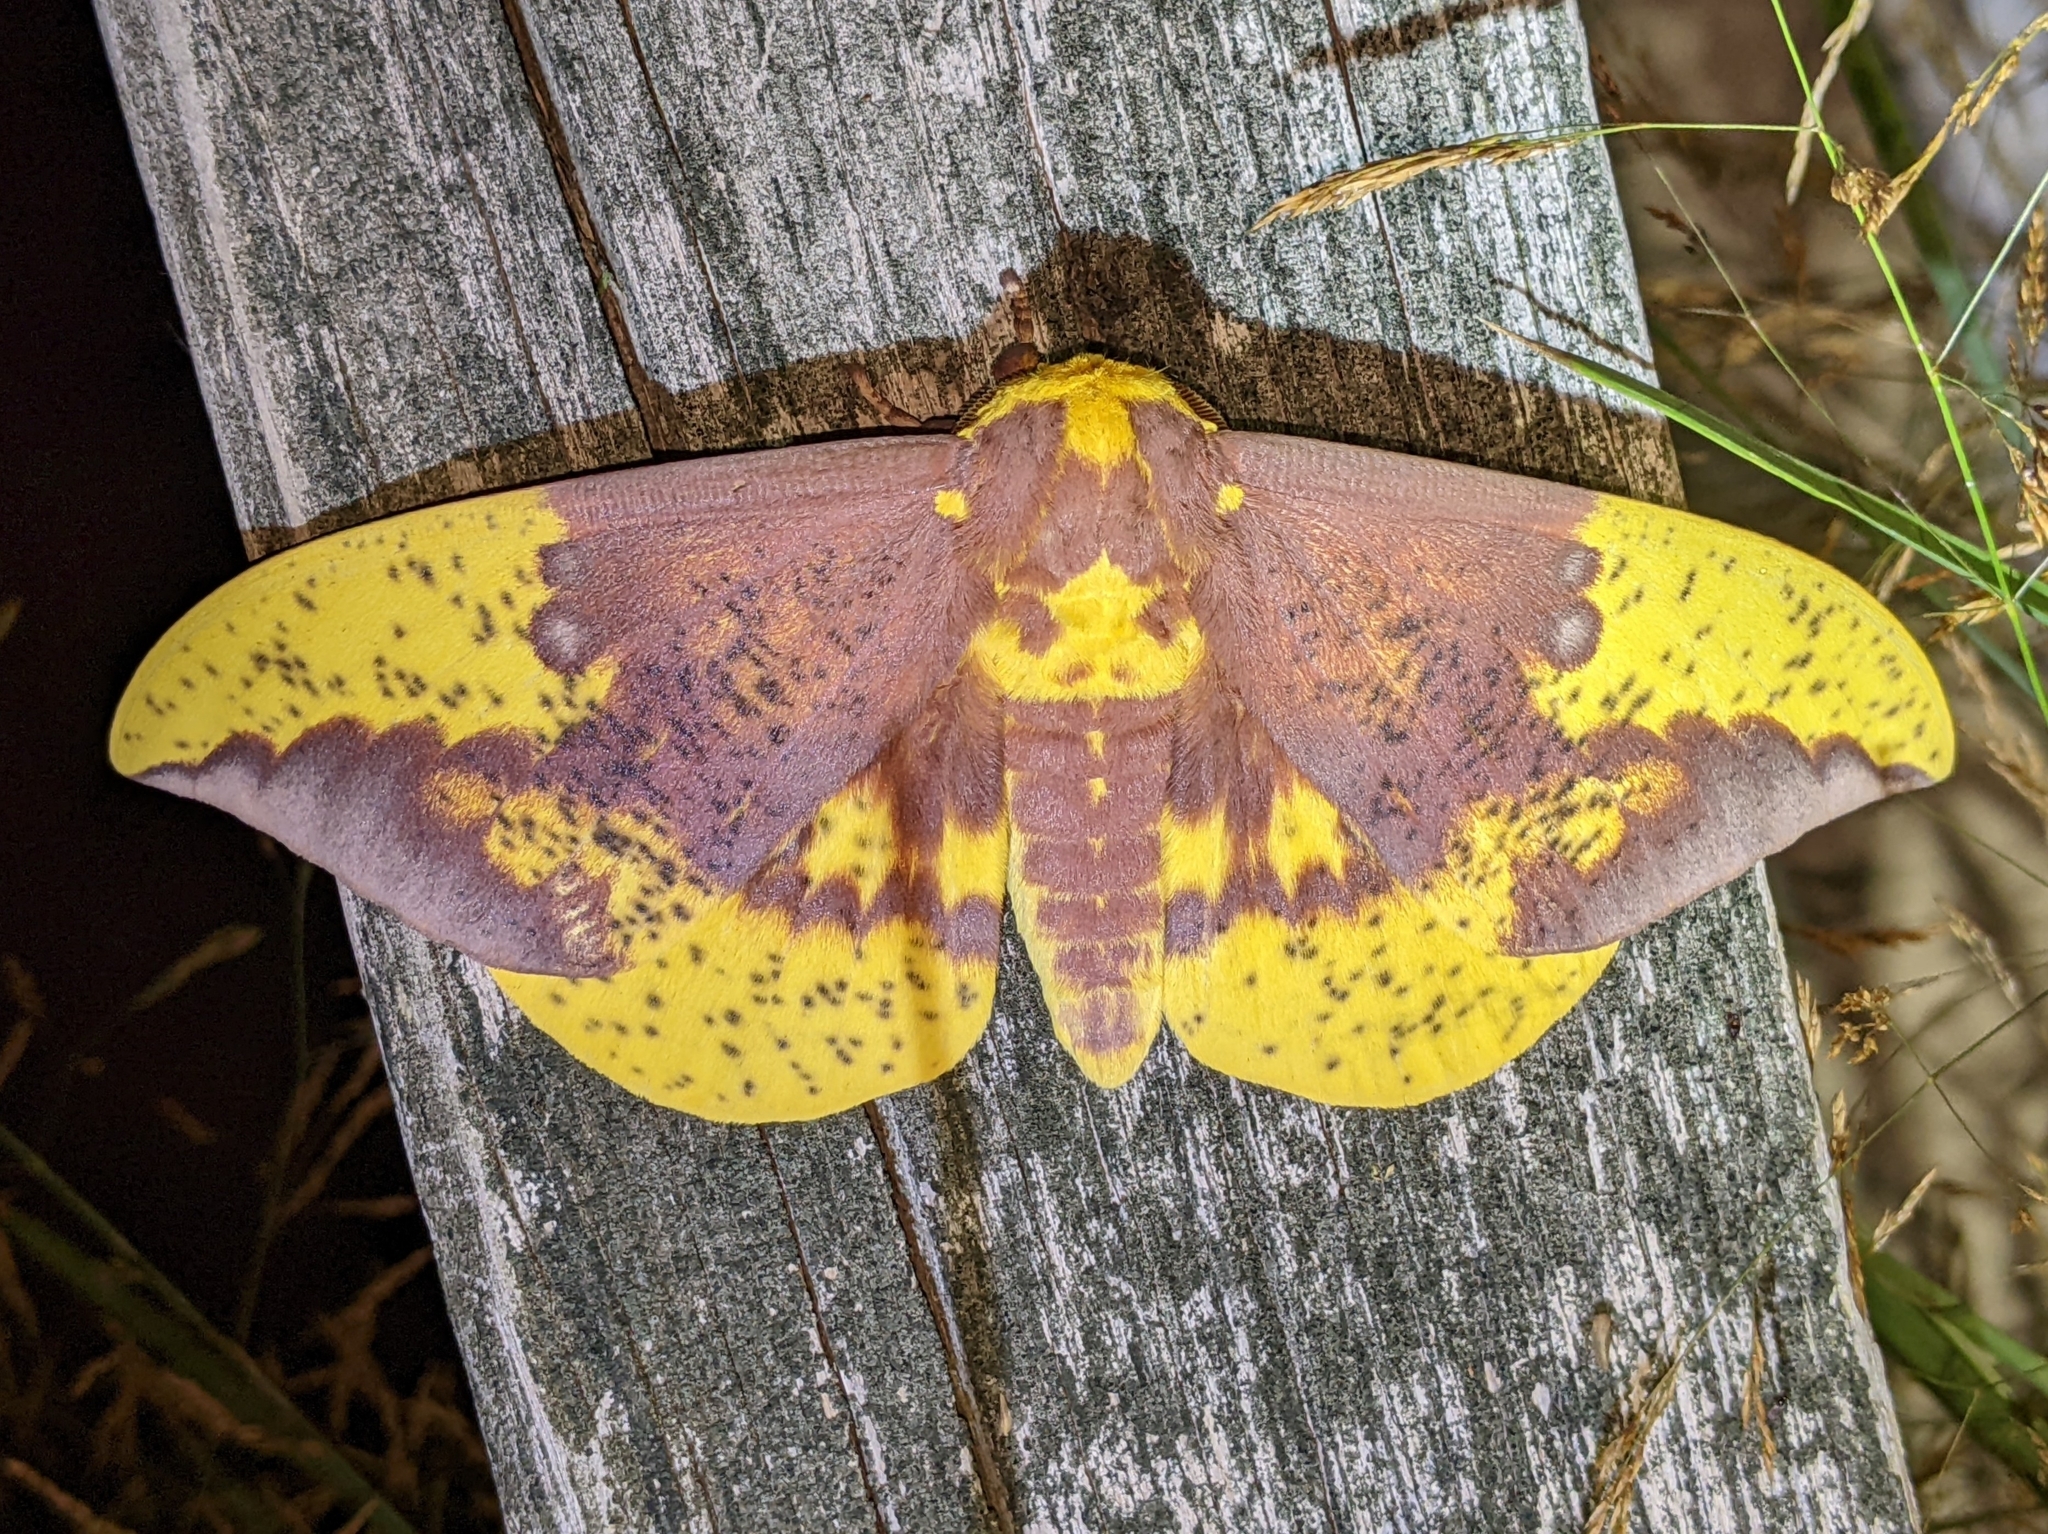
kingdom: Animalia
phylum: Arthropoda
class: Insecta
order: Lepidoptera
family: Saturniidae
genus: Eacles
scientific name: Eacles imperialis
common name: Imperial moth
